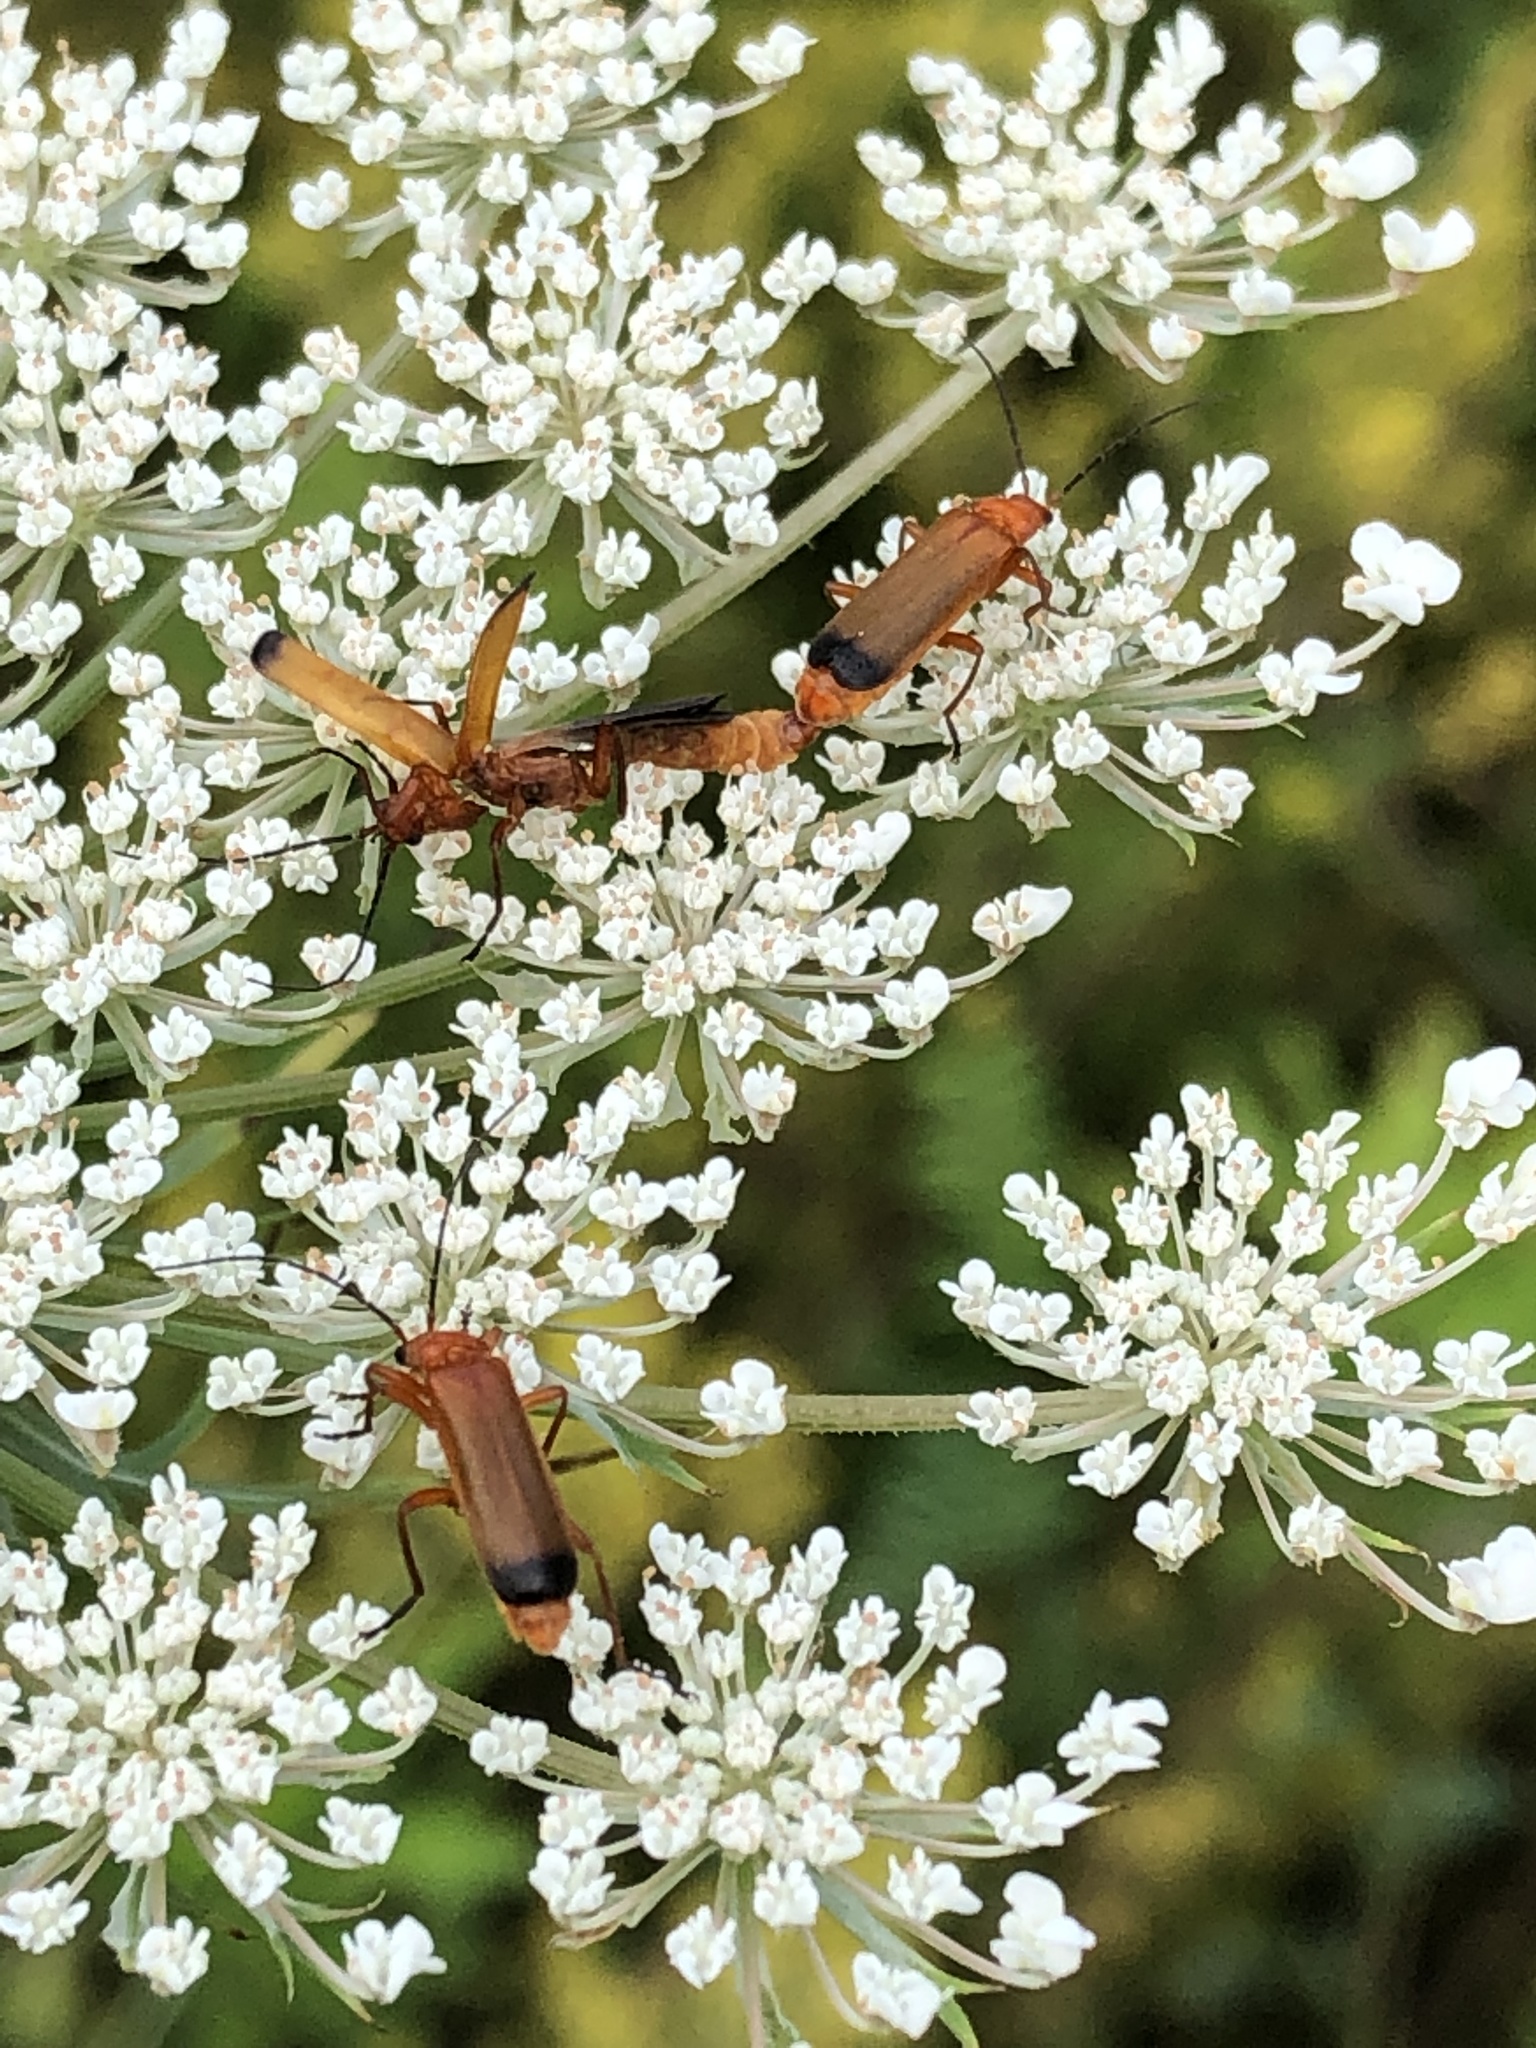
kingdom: Animalia
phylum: Arthropoda
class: Insecta
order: Coleoptera
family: Cantharidae
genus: Rhagonycha
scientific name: Rhagonycha fulva
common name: Common red soldier beetle
